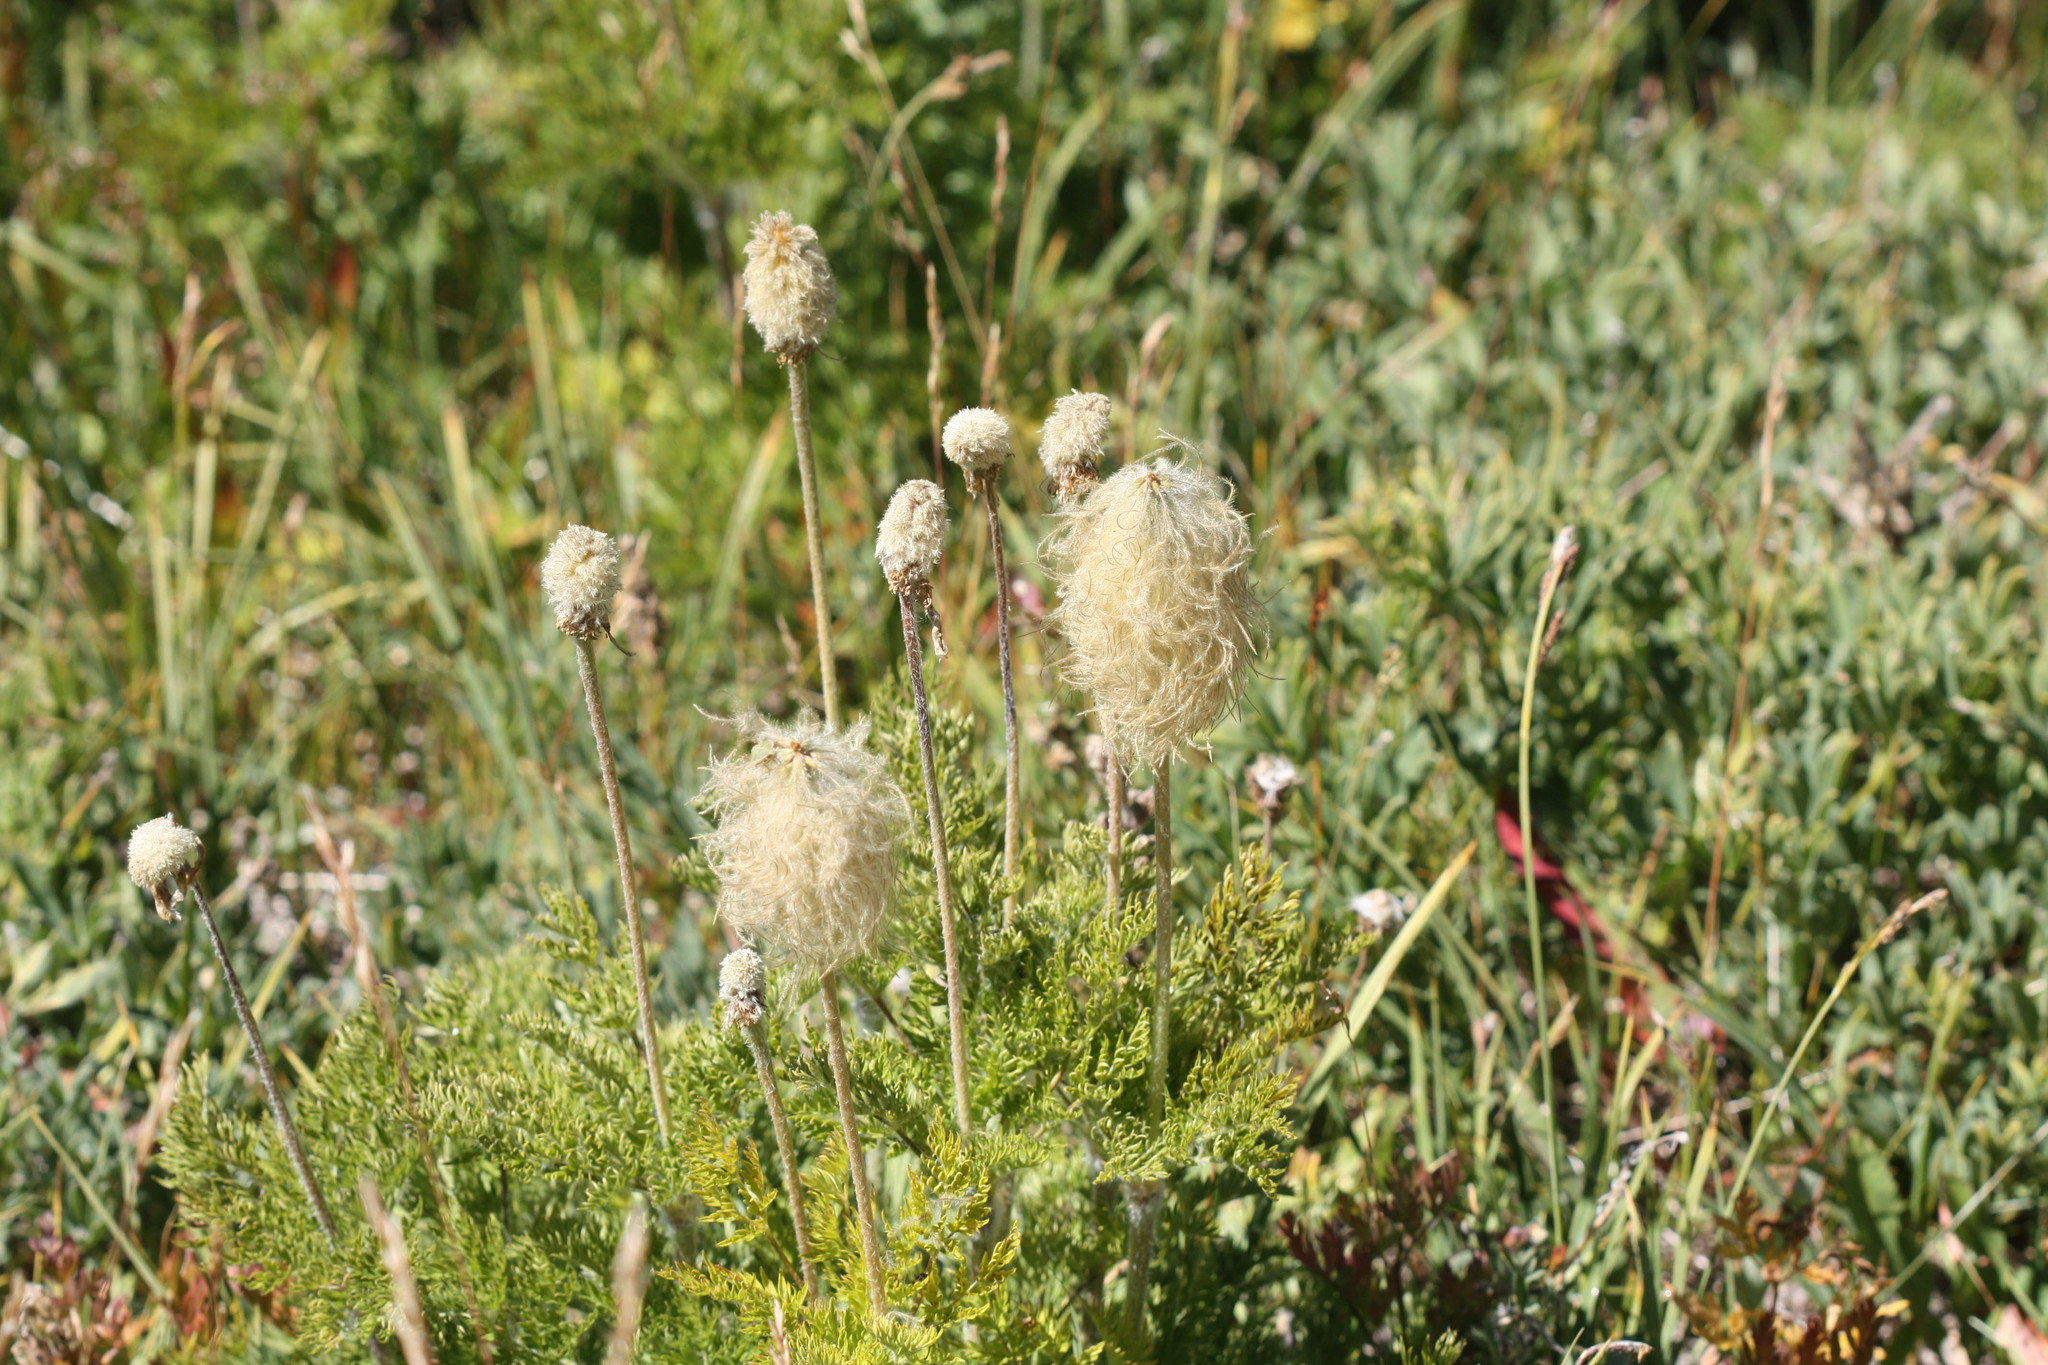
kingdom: Plantae
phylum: Tracheophyta
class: Magnoliopsida
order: Ranunculales
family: Ranunculaceae
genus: Pulsatilla
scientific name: Pulsatilla occidentalis
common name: Mountain pasqueflower
